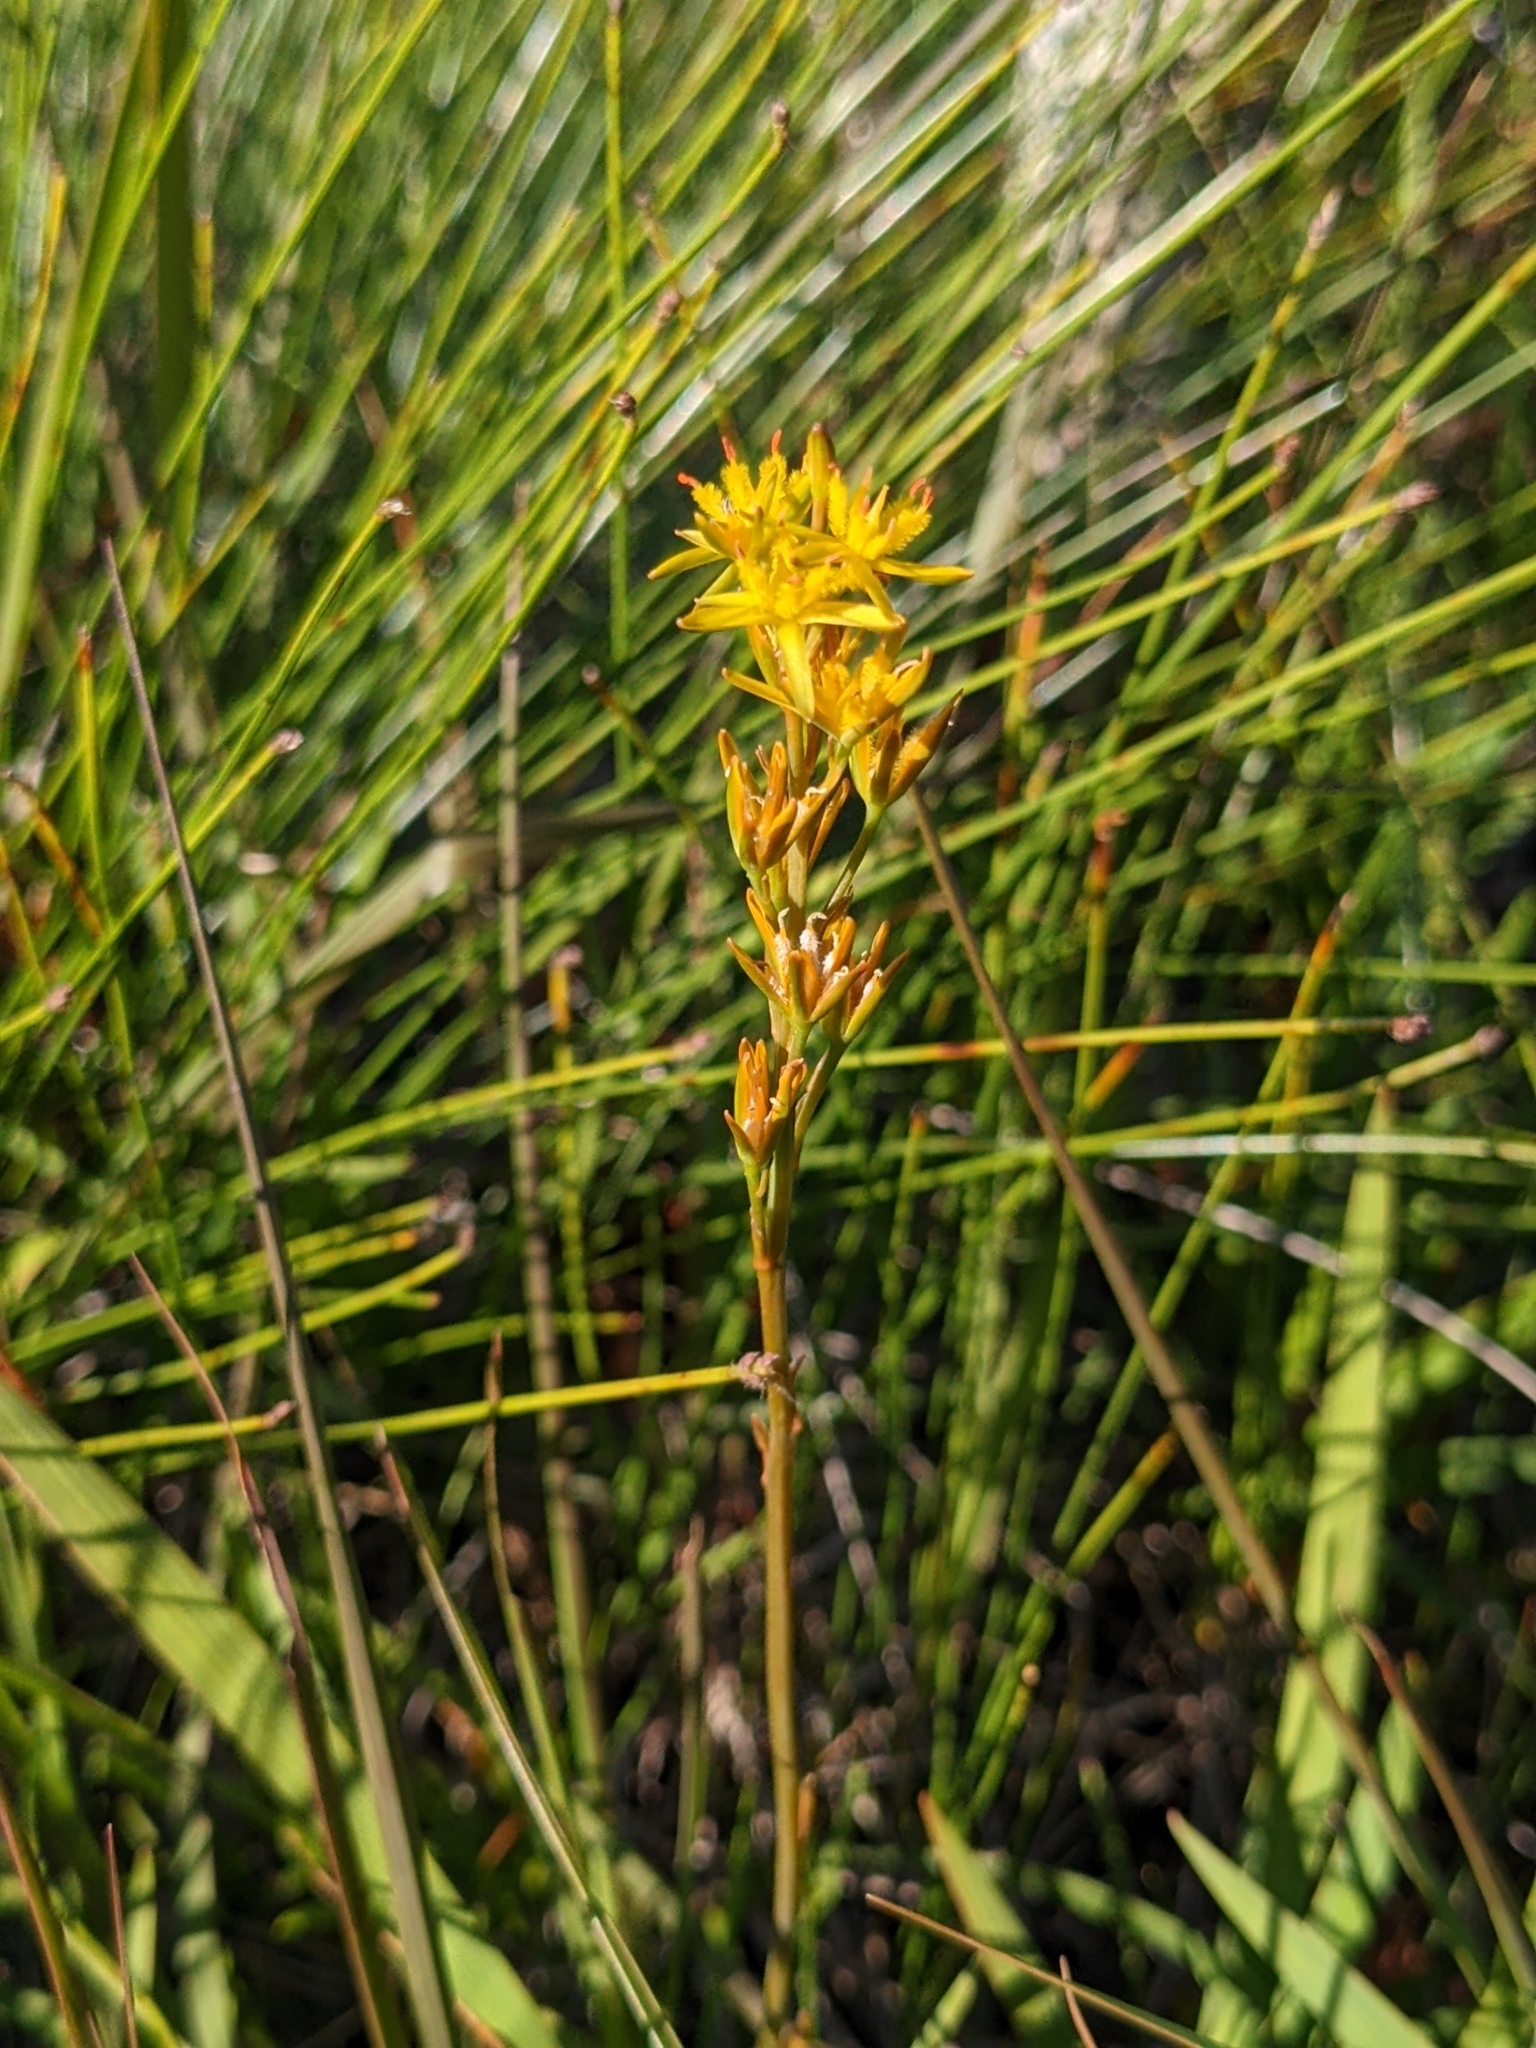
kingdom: Plantae
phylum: Tracheophyta
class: Liliopsida
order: Dioscoreales
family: Nartheciaceae
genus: Narthecium
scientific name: Narthecium ossifragum
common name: Bog asphodel
